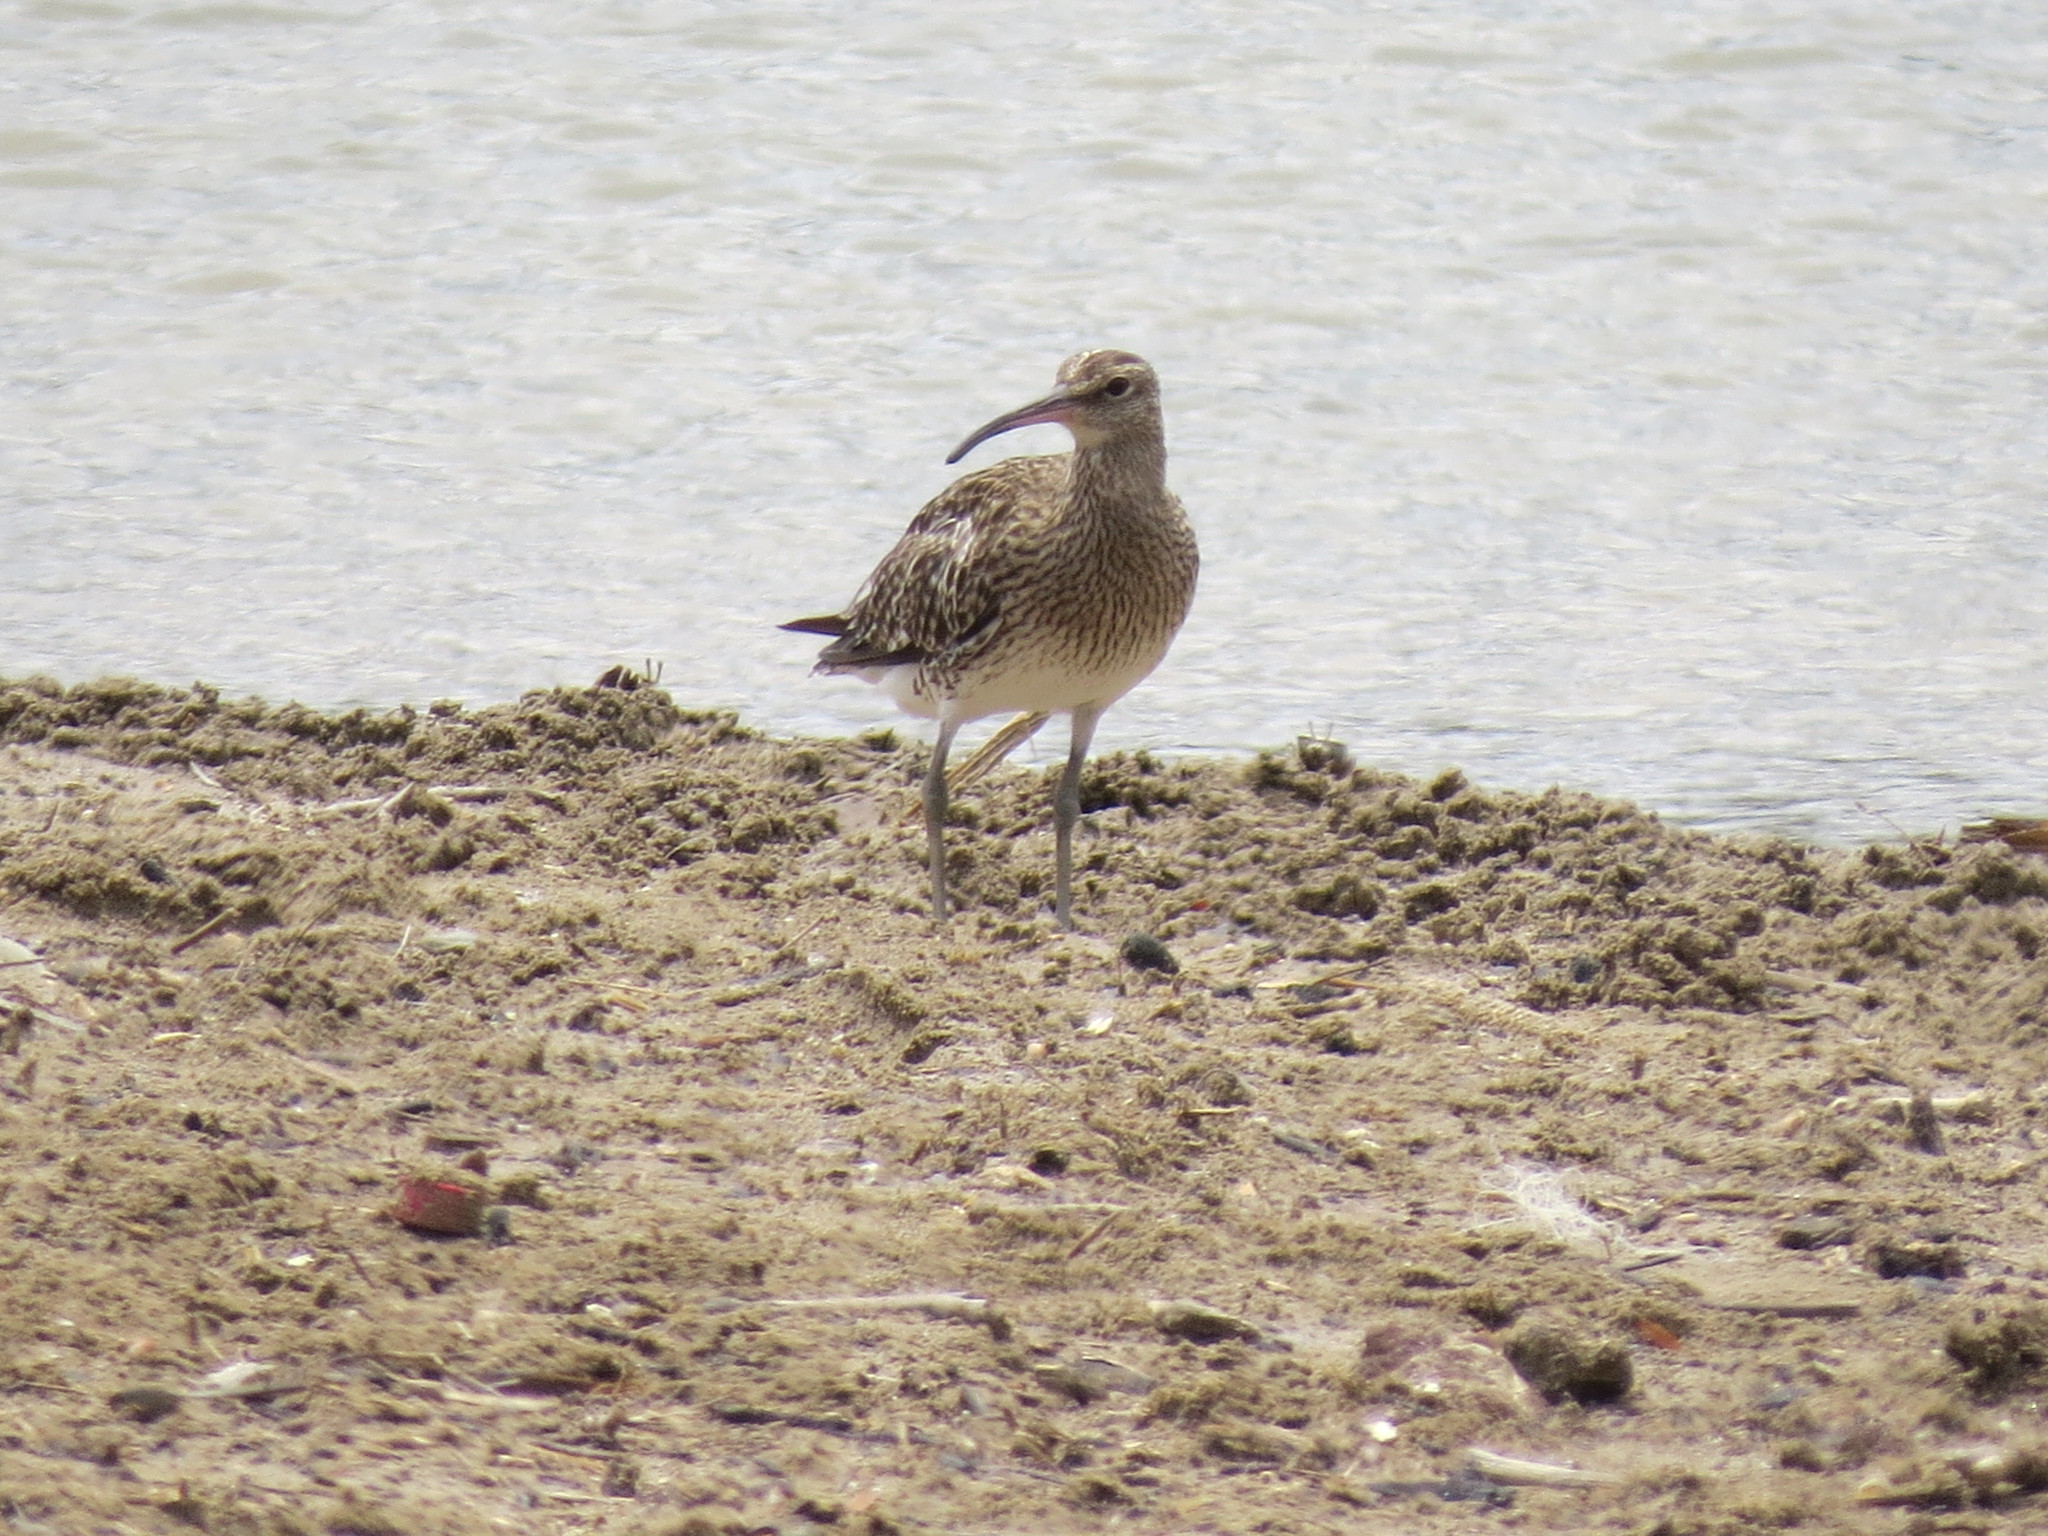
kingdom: Animalia
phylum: Chordata
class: Aves
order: Charadriiformes
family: Scolopacidae
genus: Numenius
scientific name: Numenius phaeopus
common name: Whimbrel
